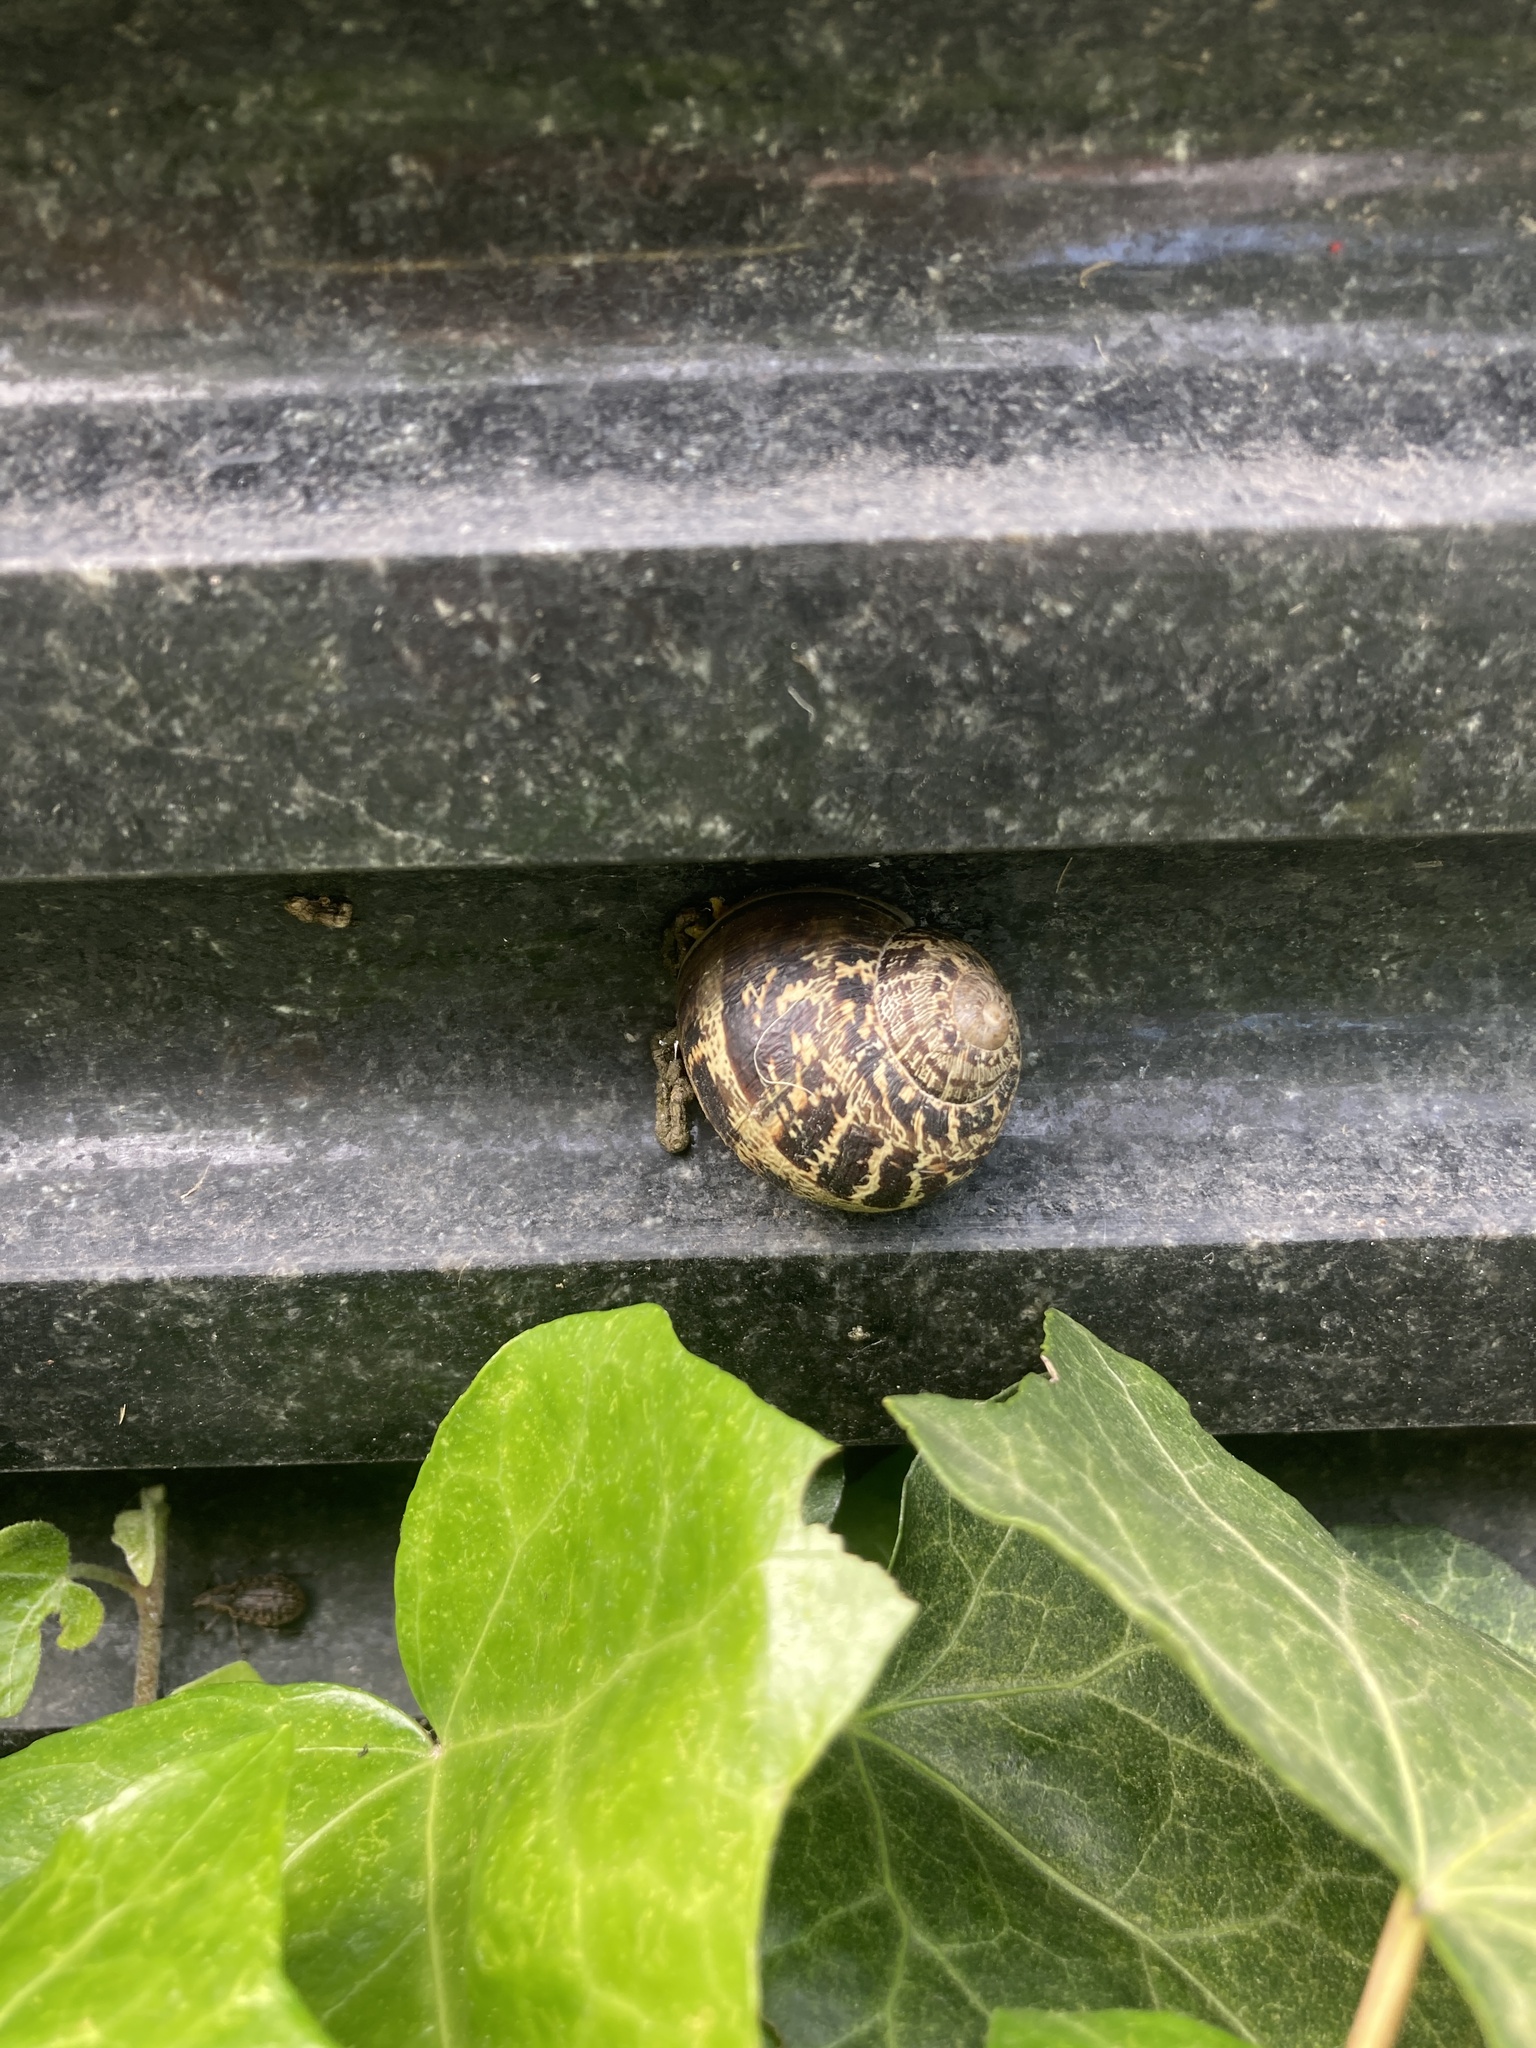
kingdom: Animalia
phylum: Mollusca
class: Gastropoda
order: Stylommatophora
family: Helicidae
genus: Cornu
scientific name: Cornu aspersum
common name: Brown garden snail
